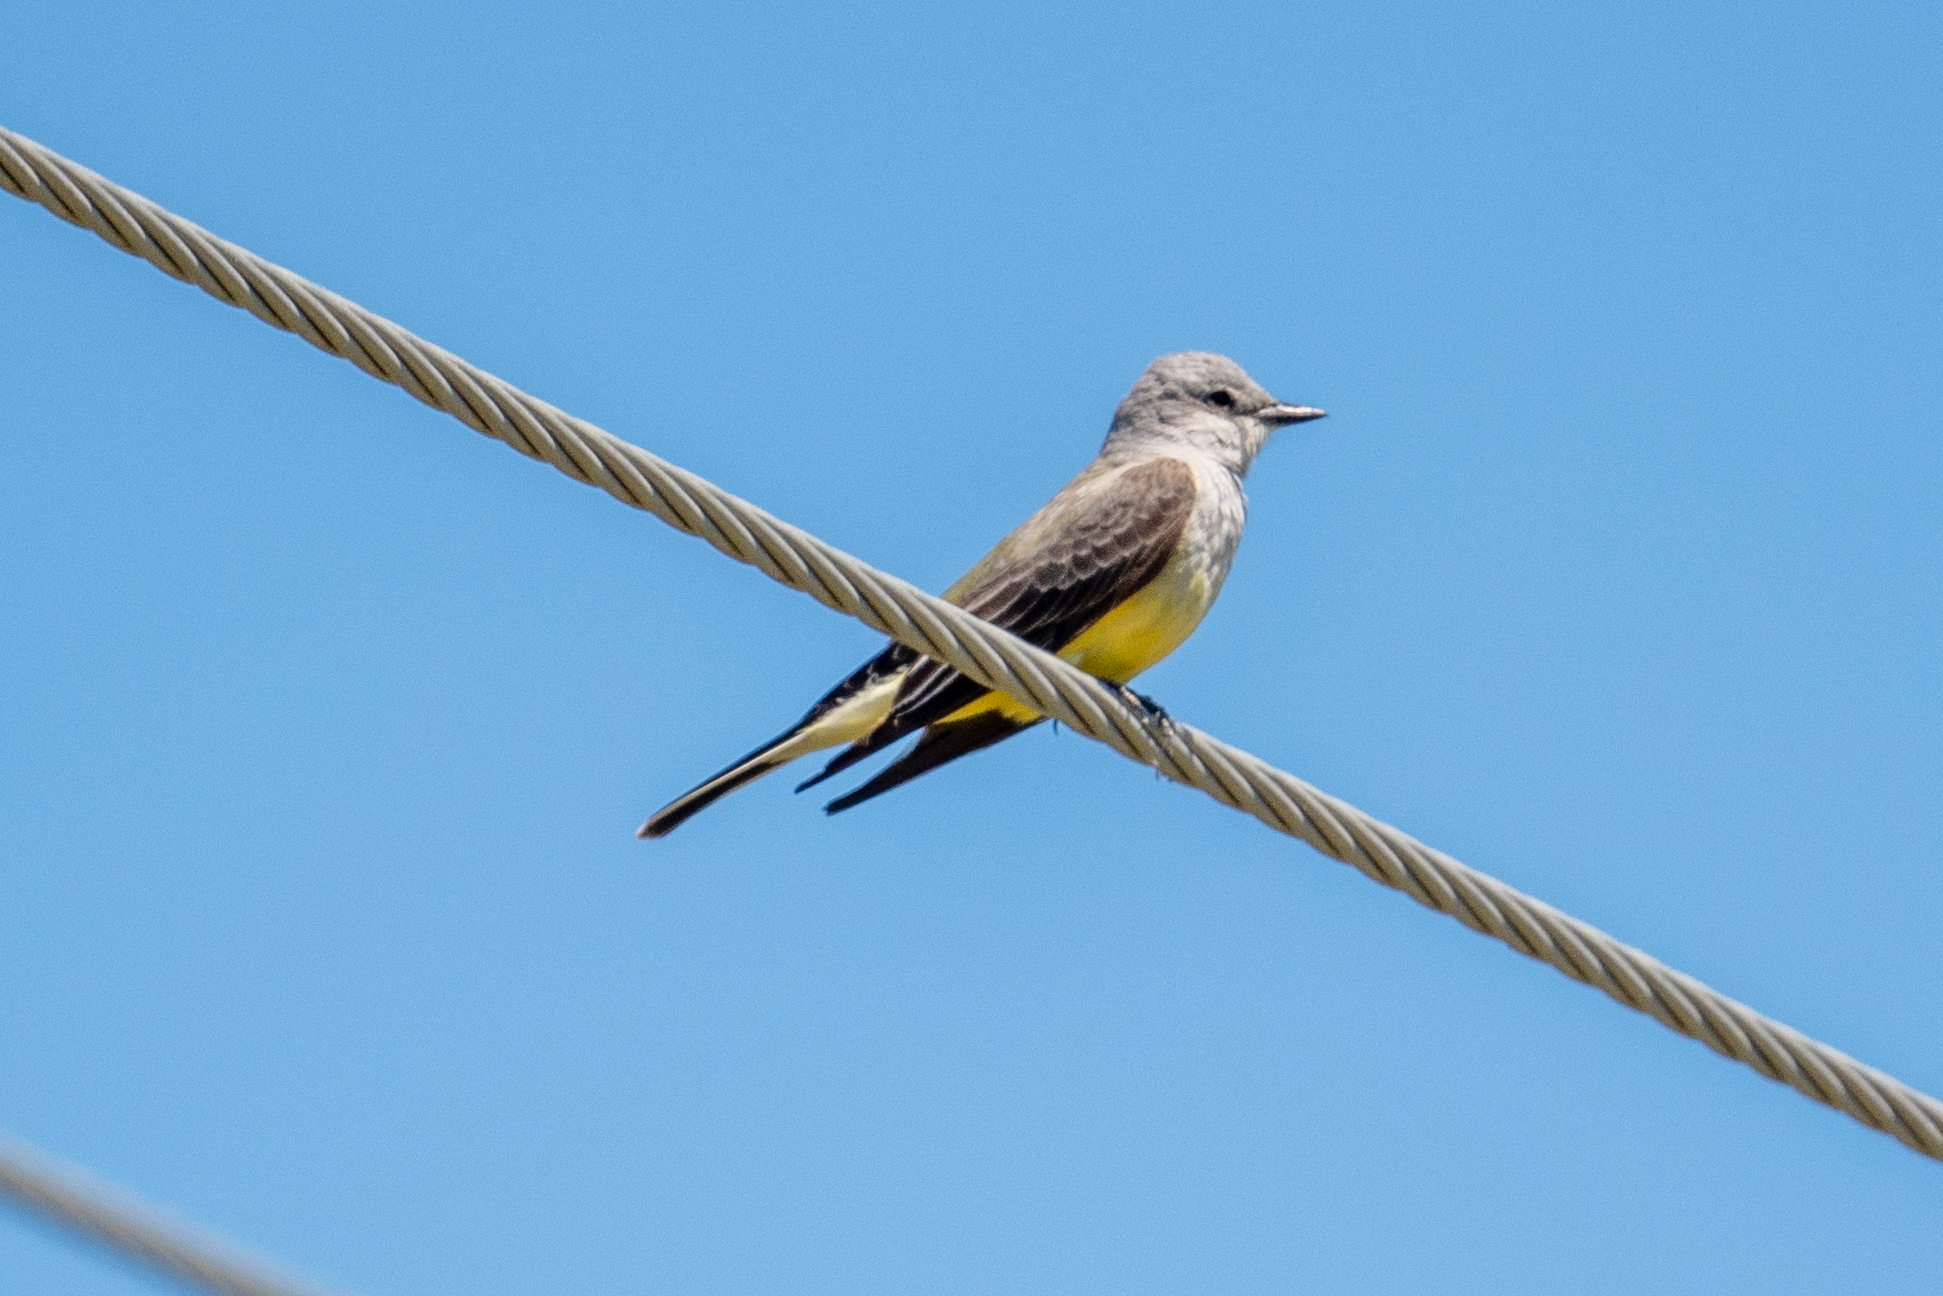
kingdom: Animalia
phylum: Chordata
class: Aves
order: Passeriformes
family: Tyrannidae
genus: Tyrannus
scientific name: Tyrannus verticalis
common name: Western kingbird
